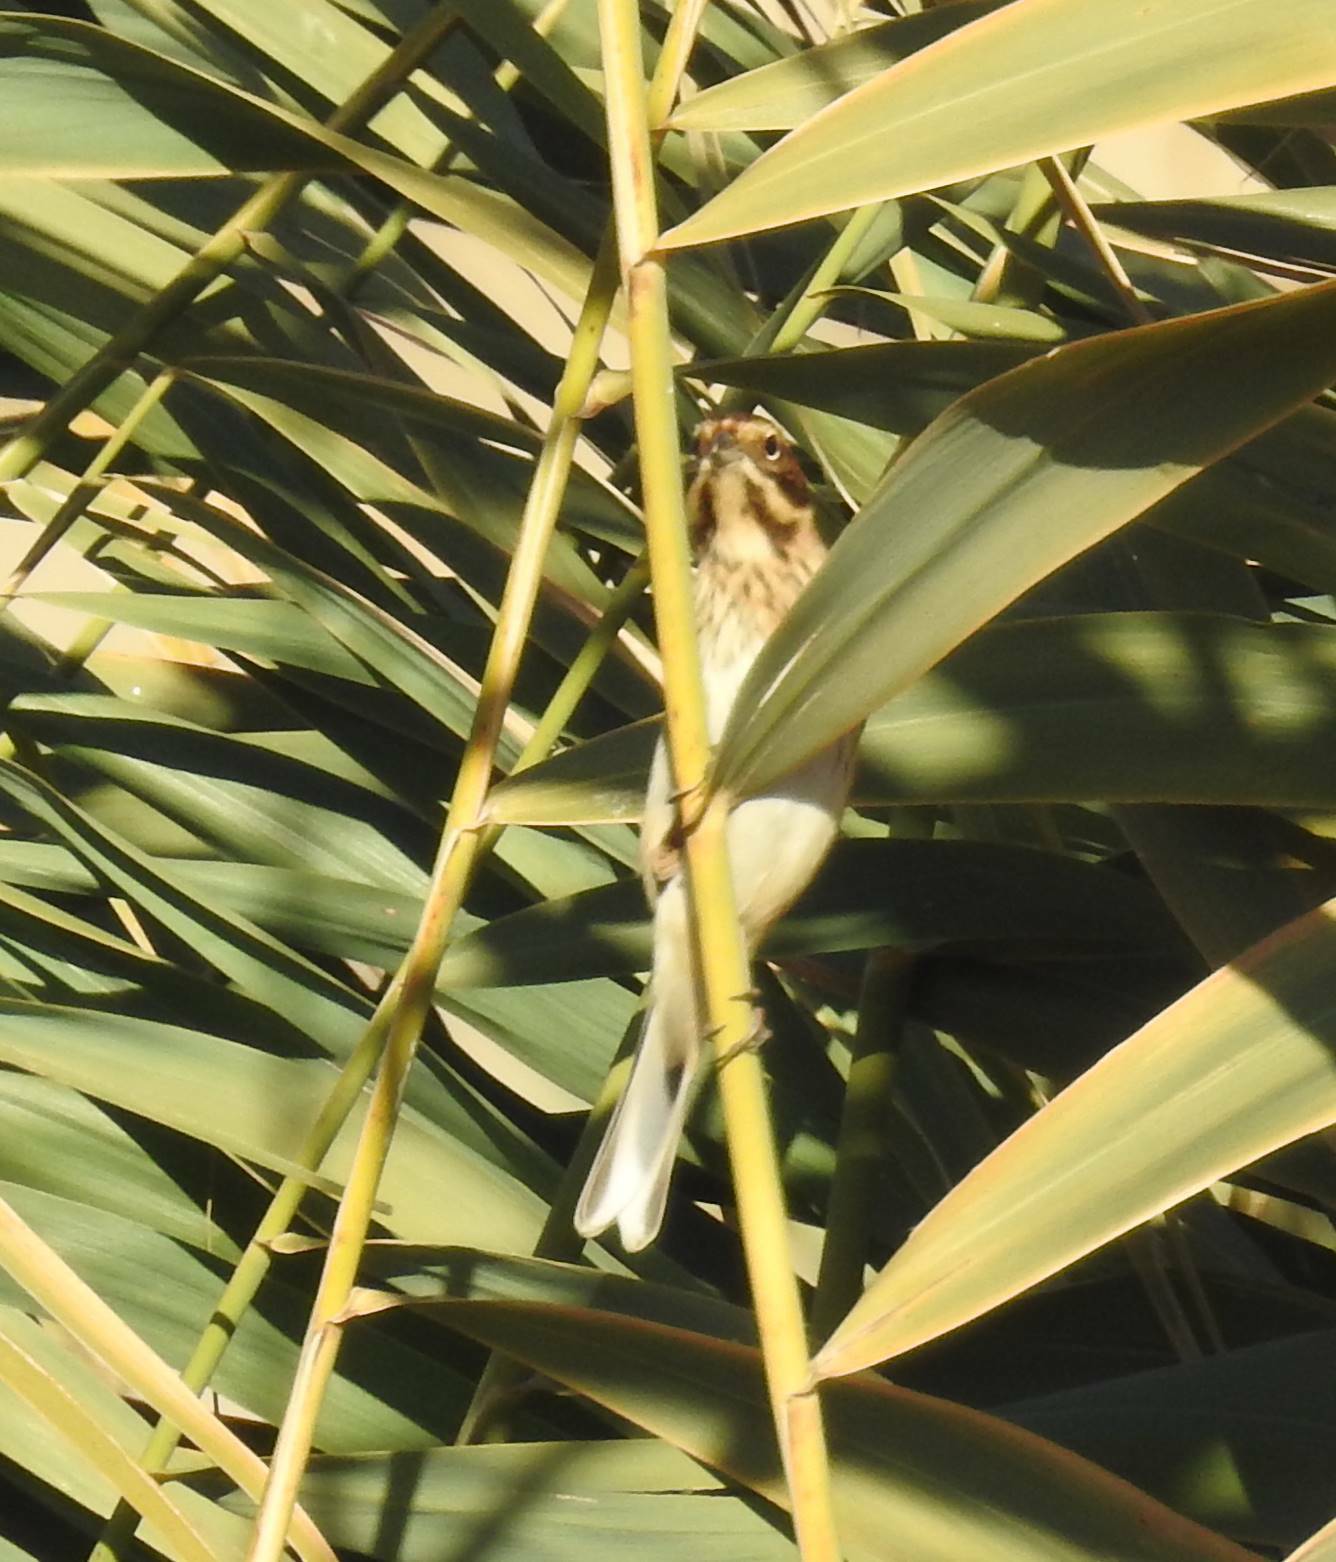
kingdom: Animalia
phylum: Chordata
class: Aves
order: Passeriformes
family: Emberizidae
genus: Emberiza
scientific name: Emberiza schoeniclus
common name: Reed bunting
